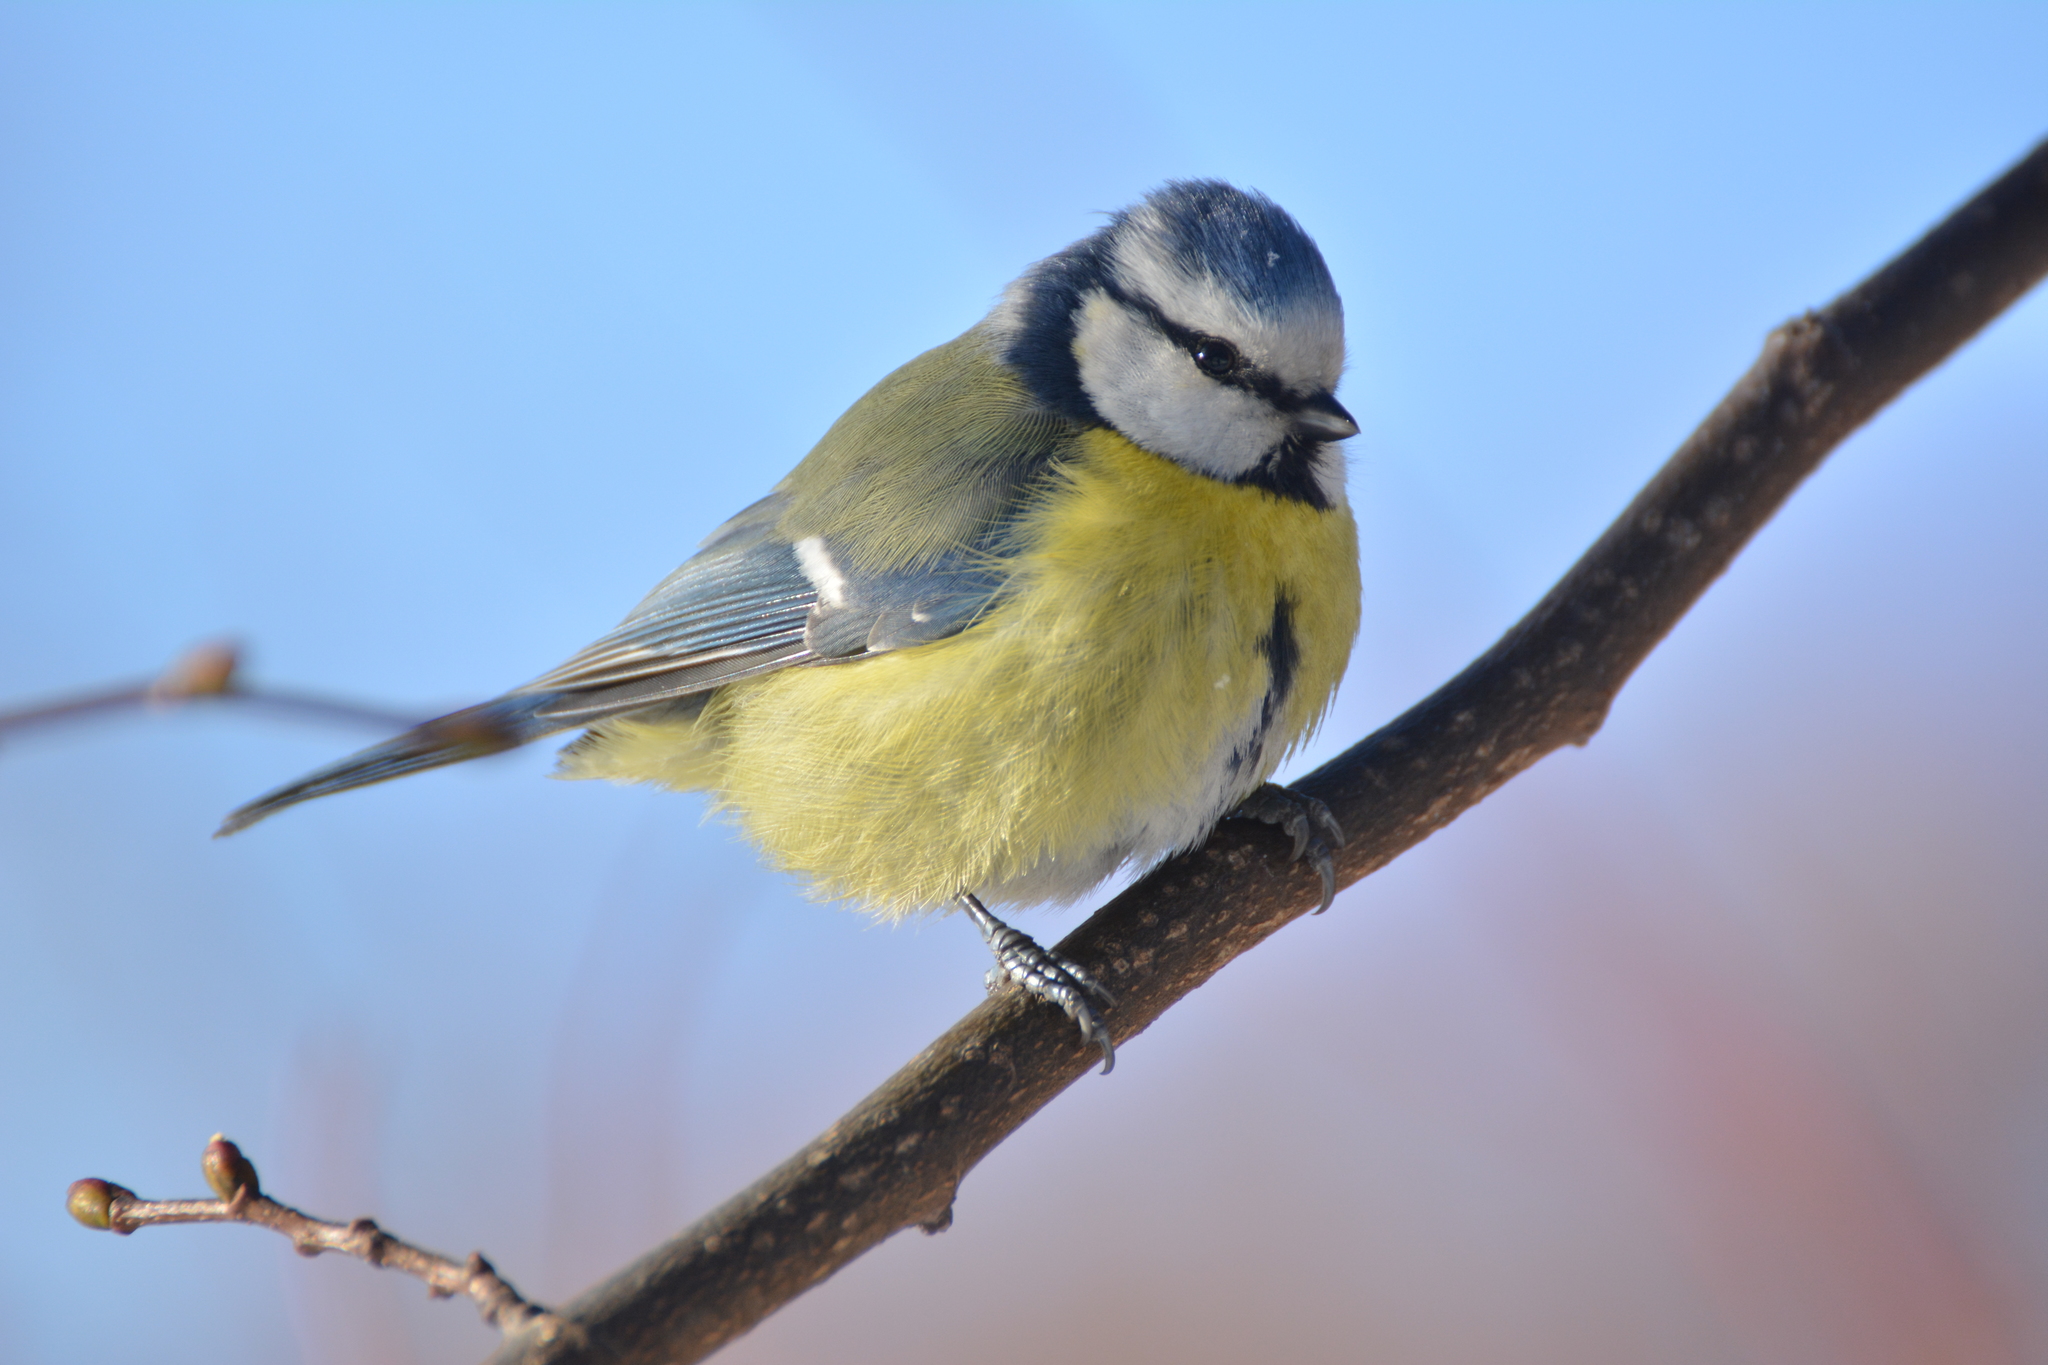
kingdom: Animalia
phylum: Chordata
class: Aves
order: Passeriformes
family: Paridae
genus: Cyanistes
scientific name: Cyanistes caeruleus
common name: Eurasian blue tit
